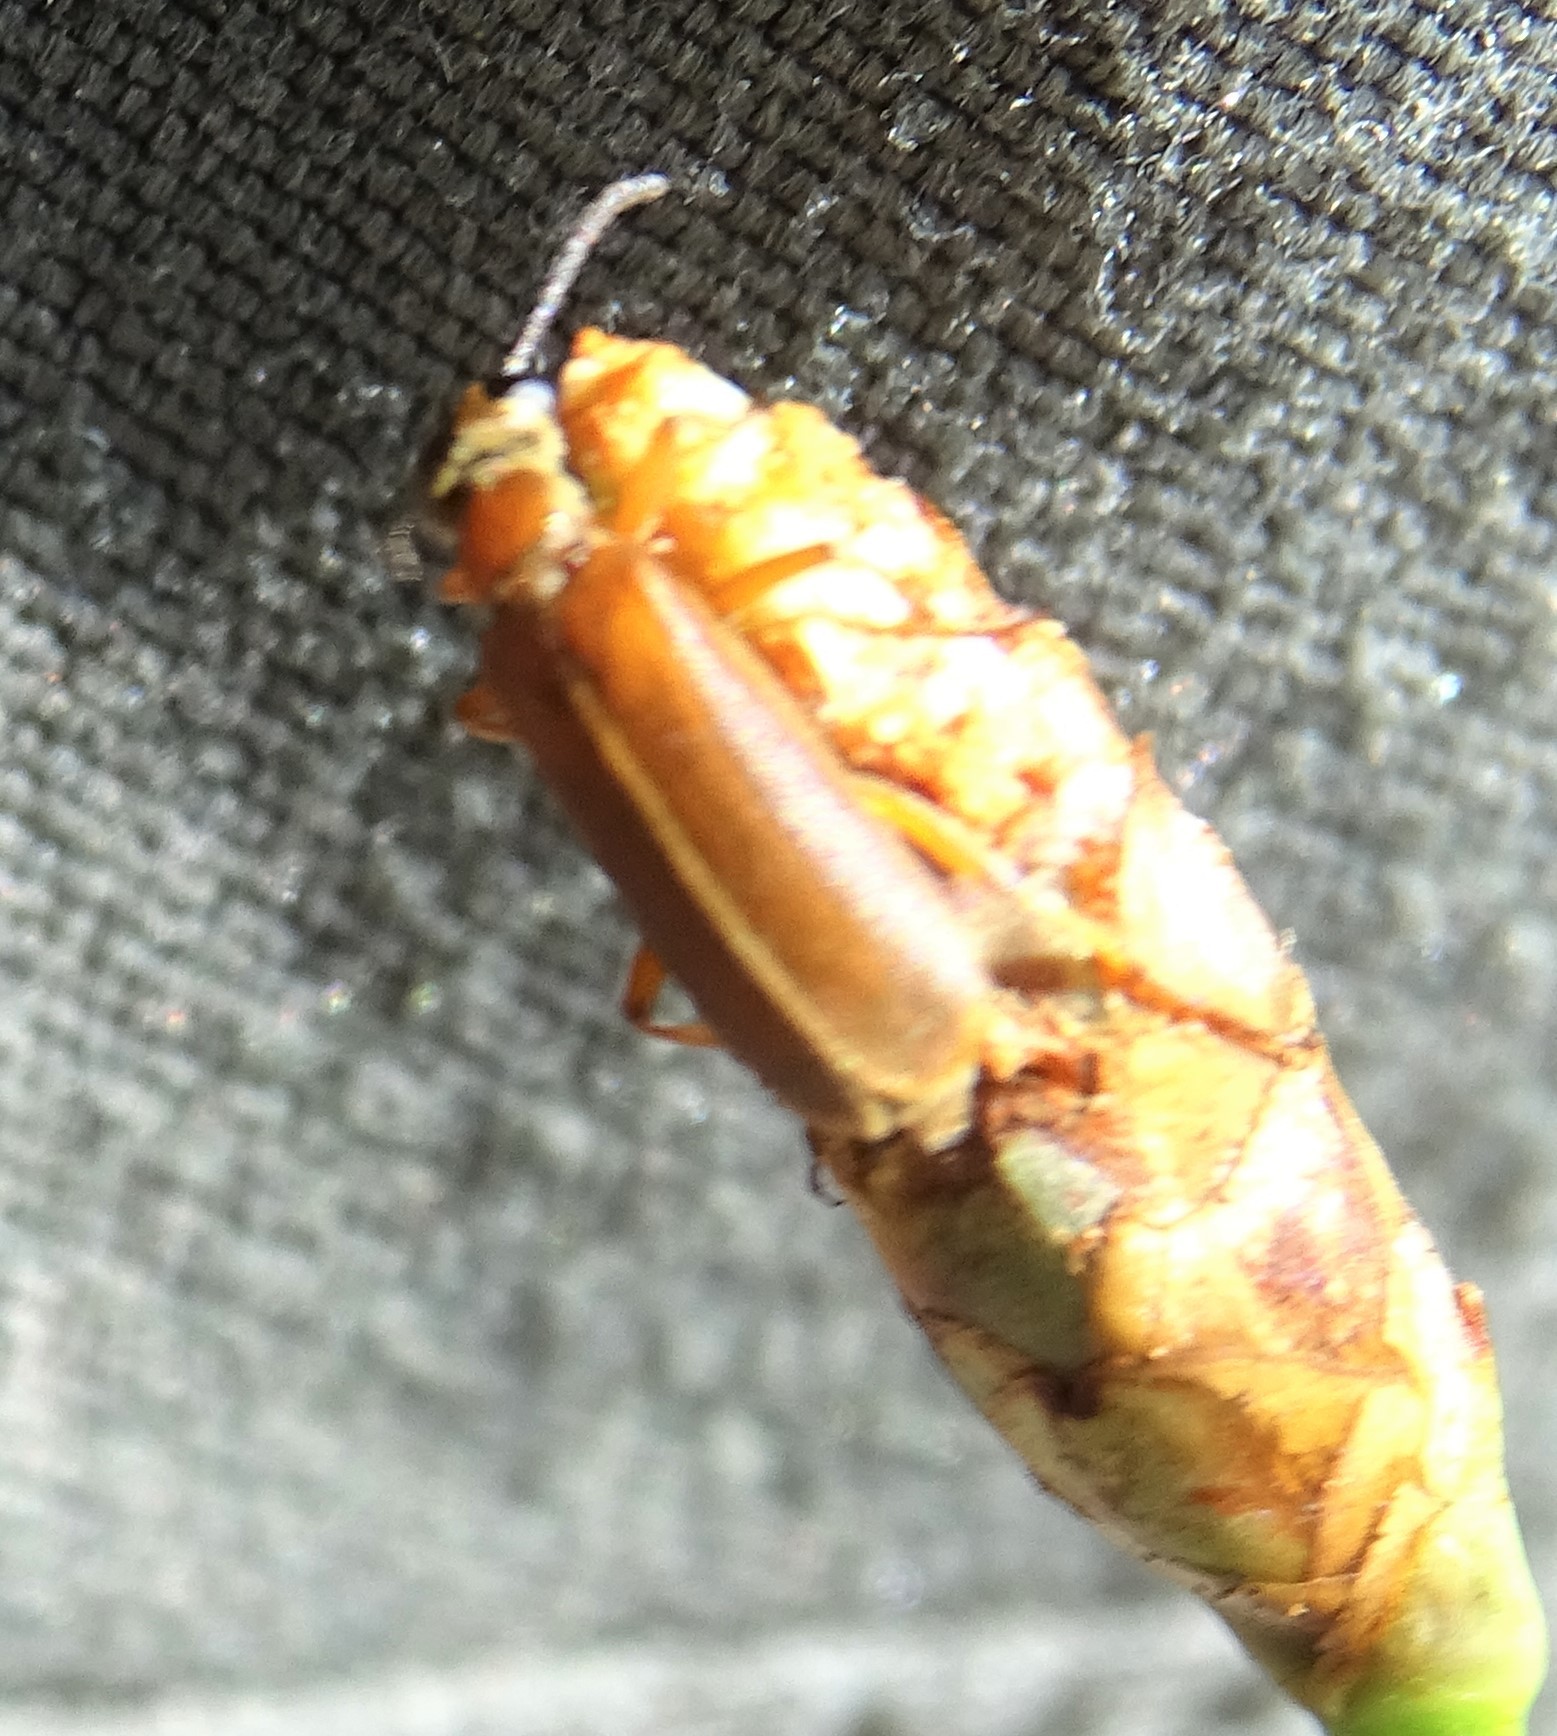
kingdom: Animalia
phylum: Arthropoda
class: Insecta
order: Coleoptera
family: Meloidae
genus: Epicauta
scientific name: Epicauta batesii
